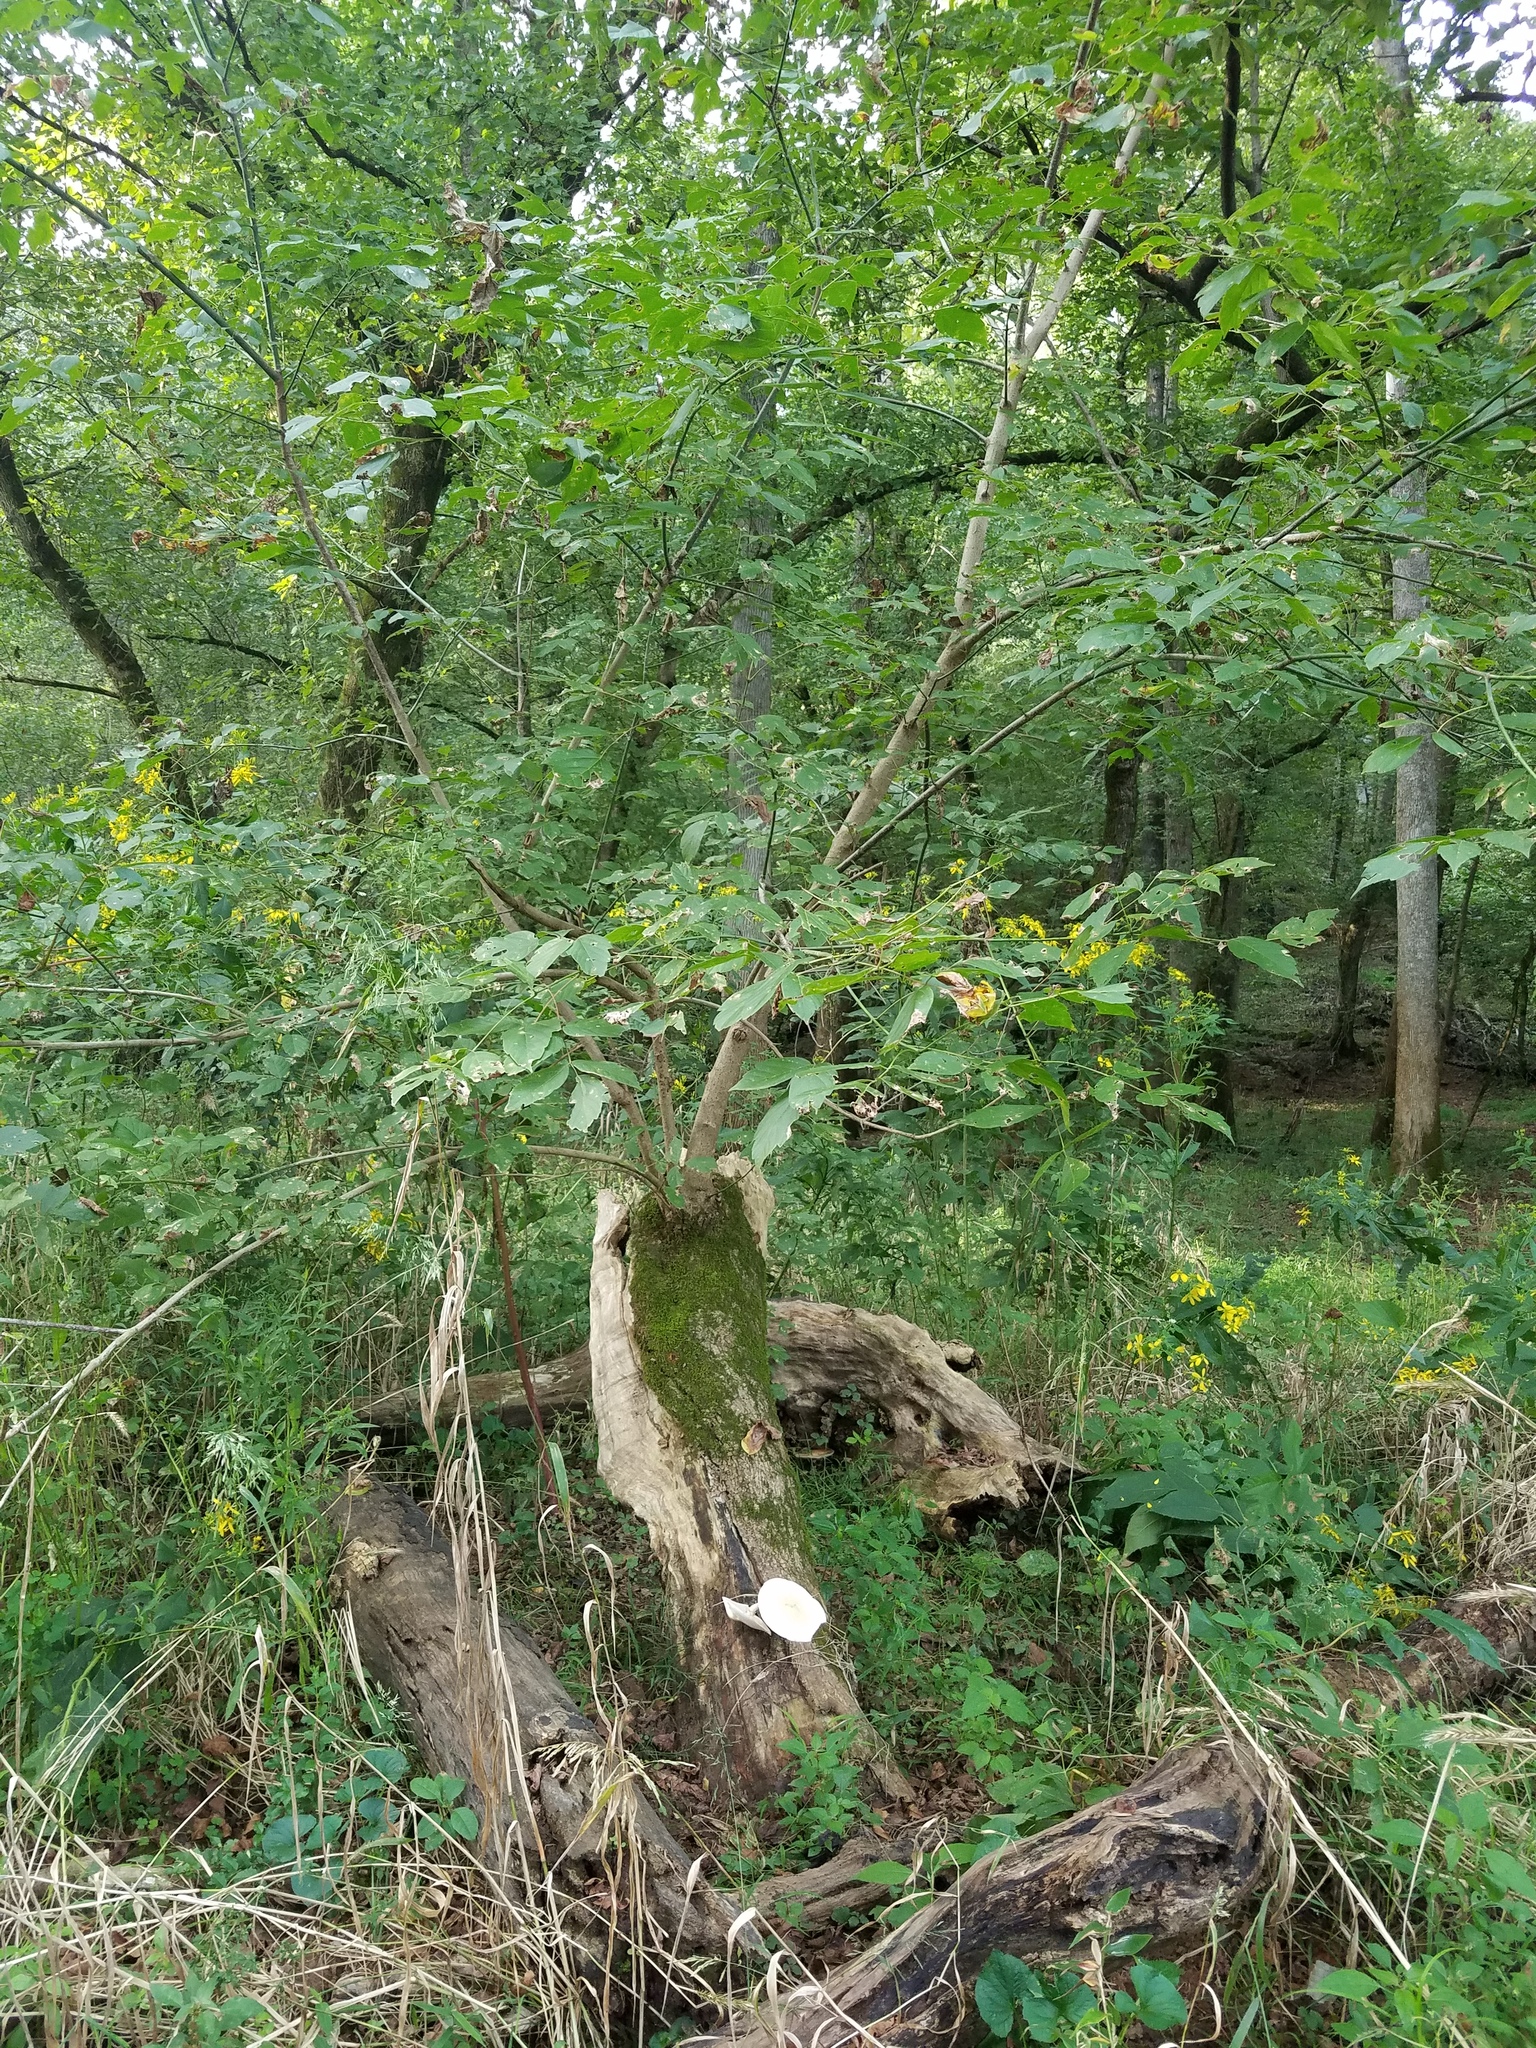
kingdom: Plantae
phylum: Tracheophyta
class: Magnoliopsida
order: Sapindales
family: Sapindaceae
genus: Acer
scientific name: Acer negundo
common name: Ashleaf maple
